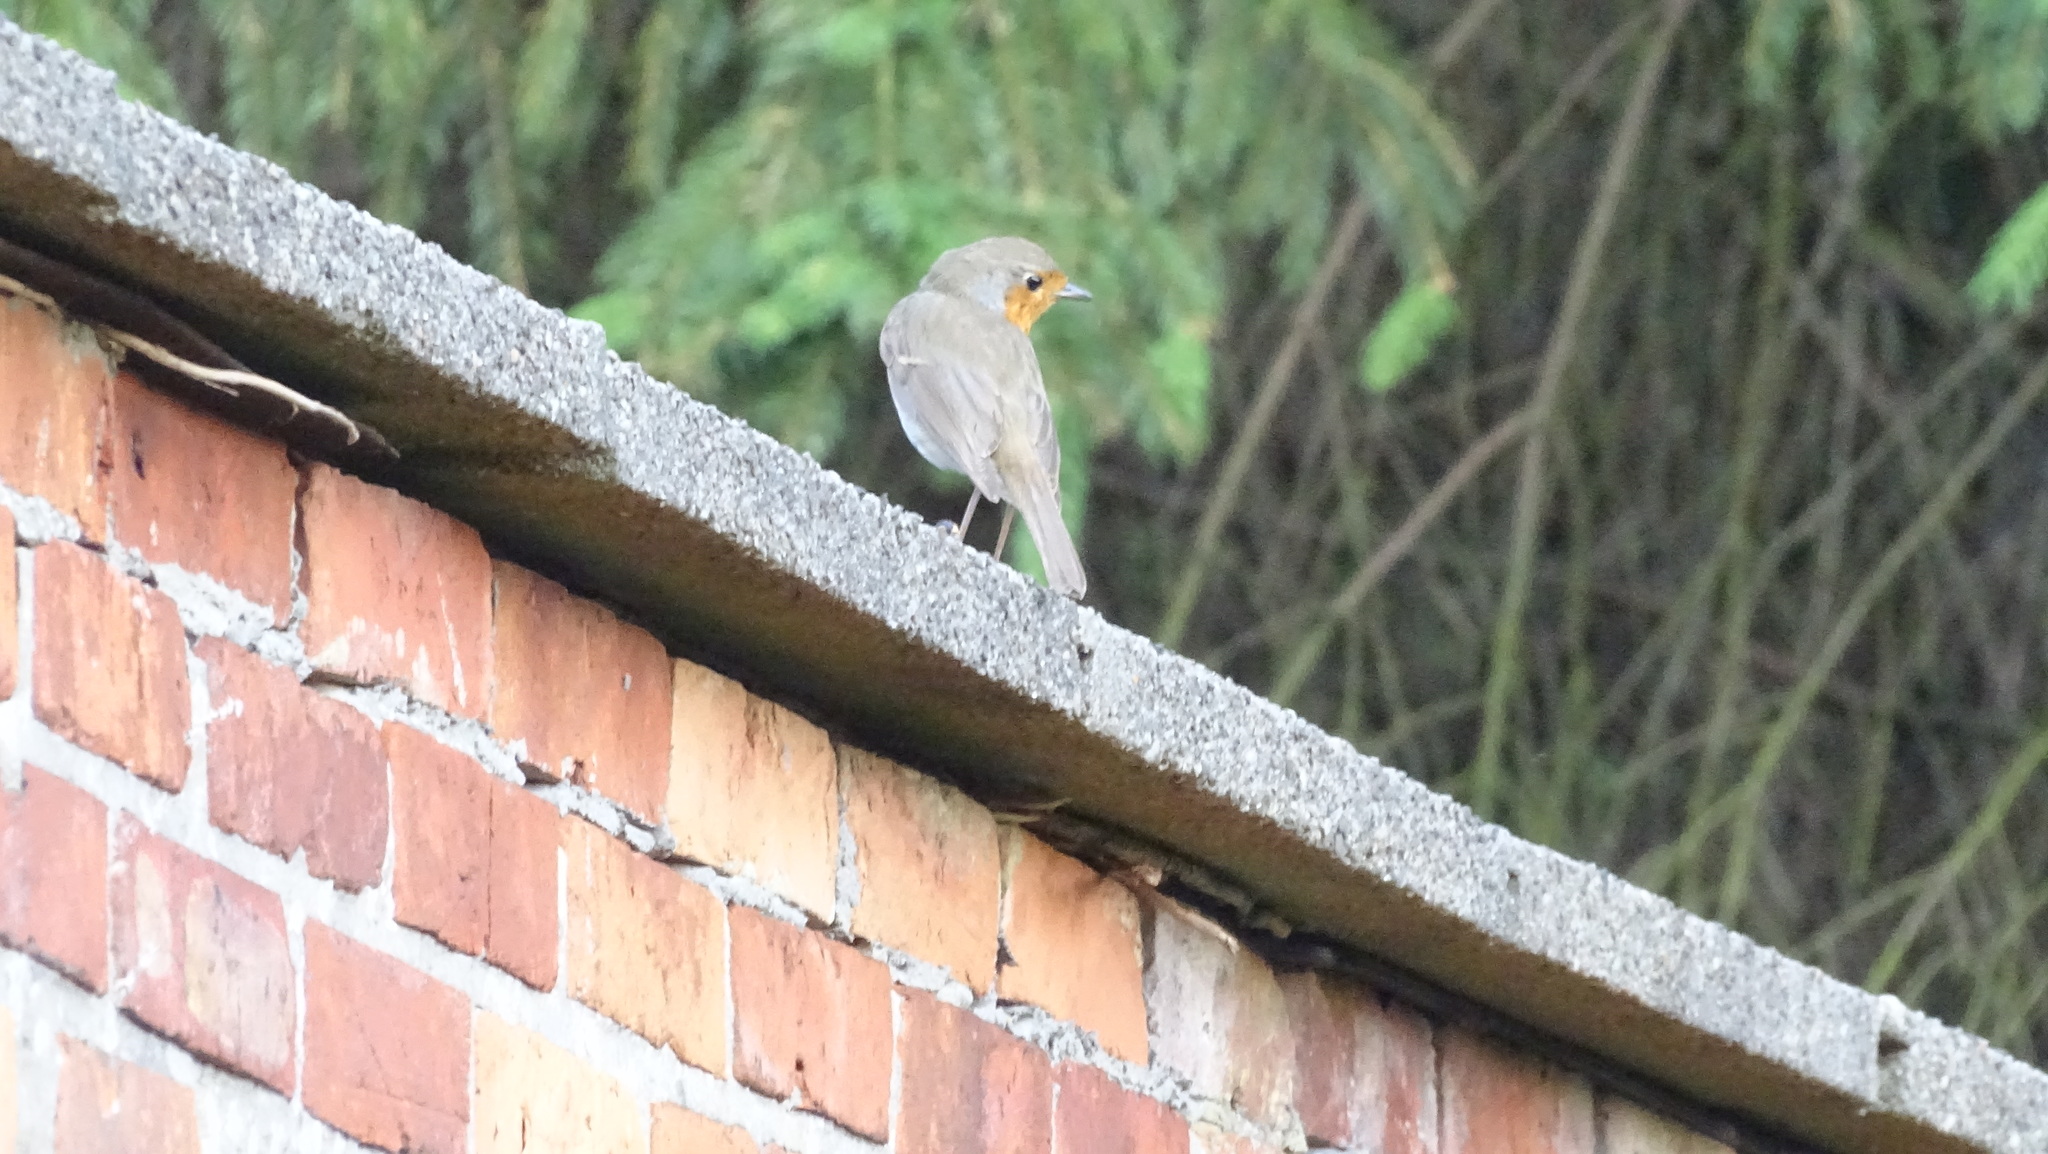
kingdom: Animalia
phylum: Chordata
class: Aves
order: Passeriformes
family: Muscicapidae
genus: Erithacus
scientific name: Erithacus rubecula
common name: European robin
